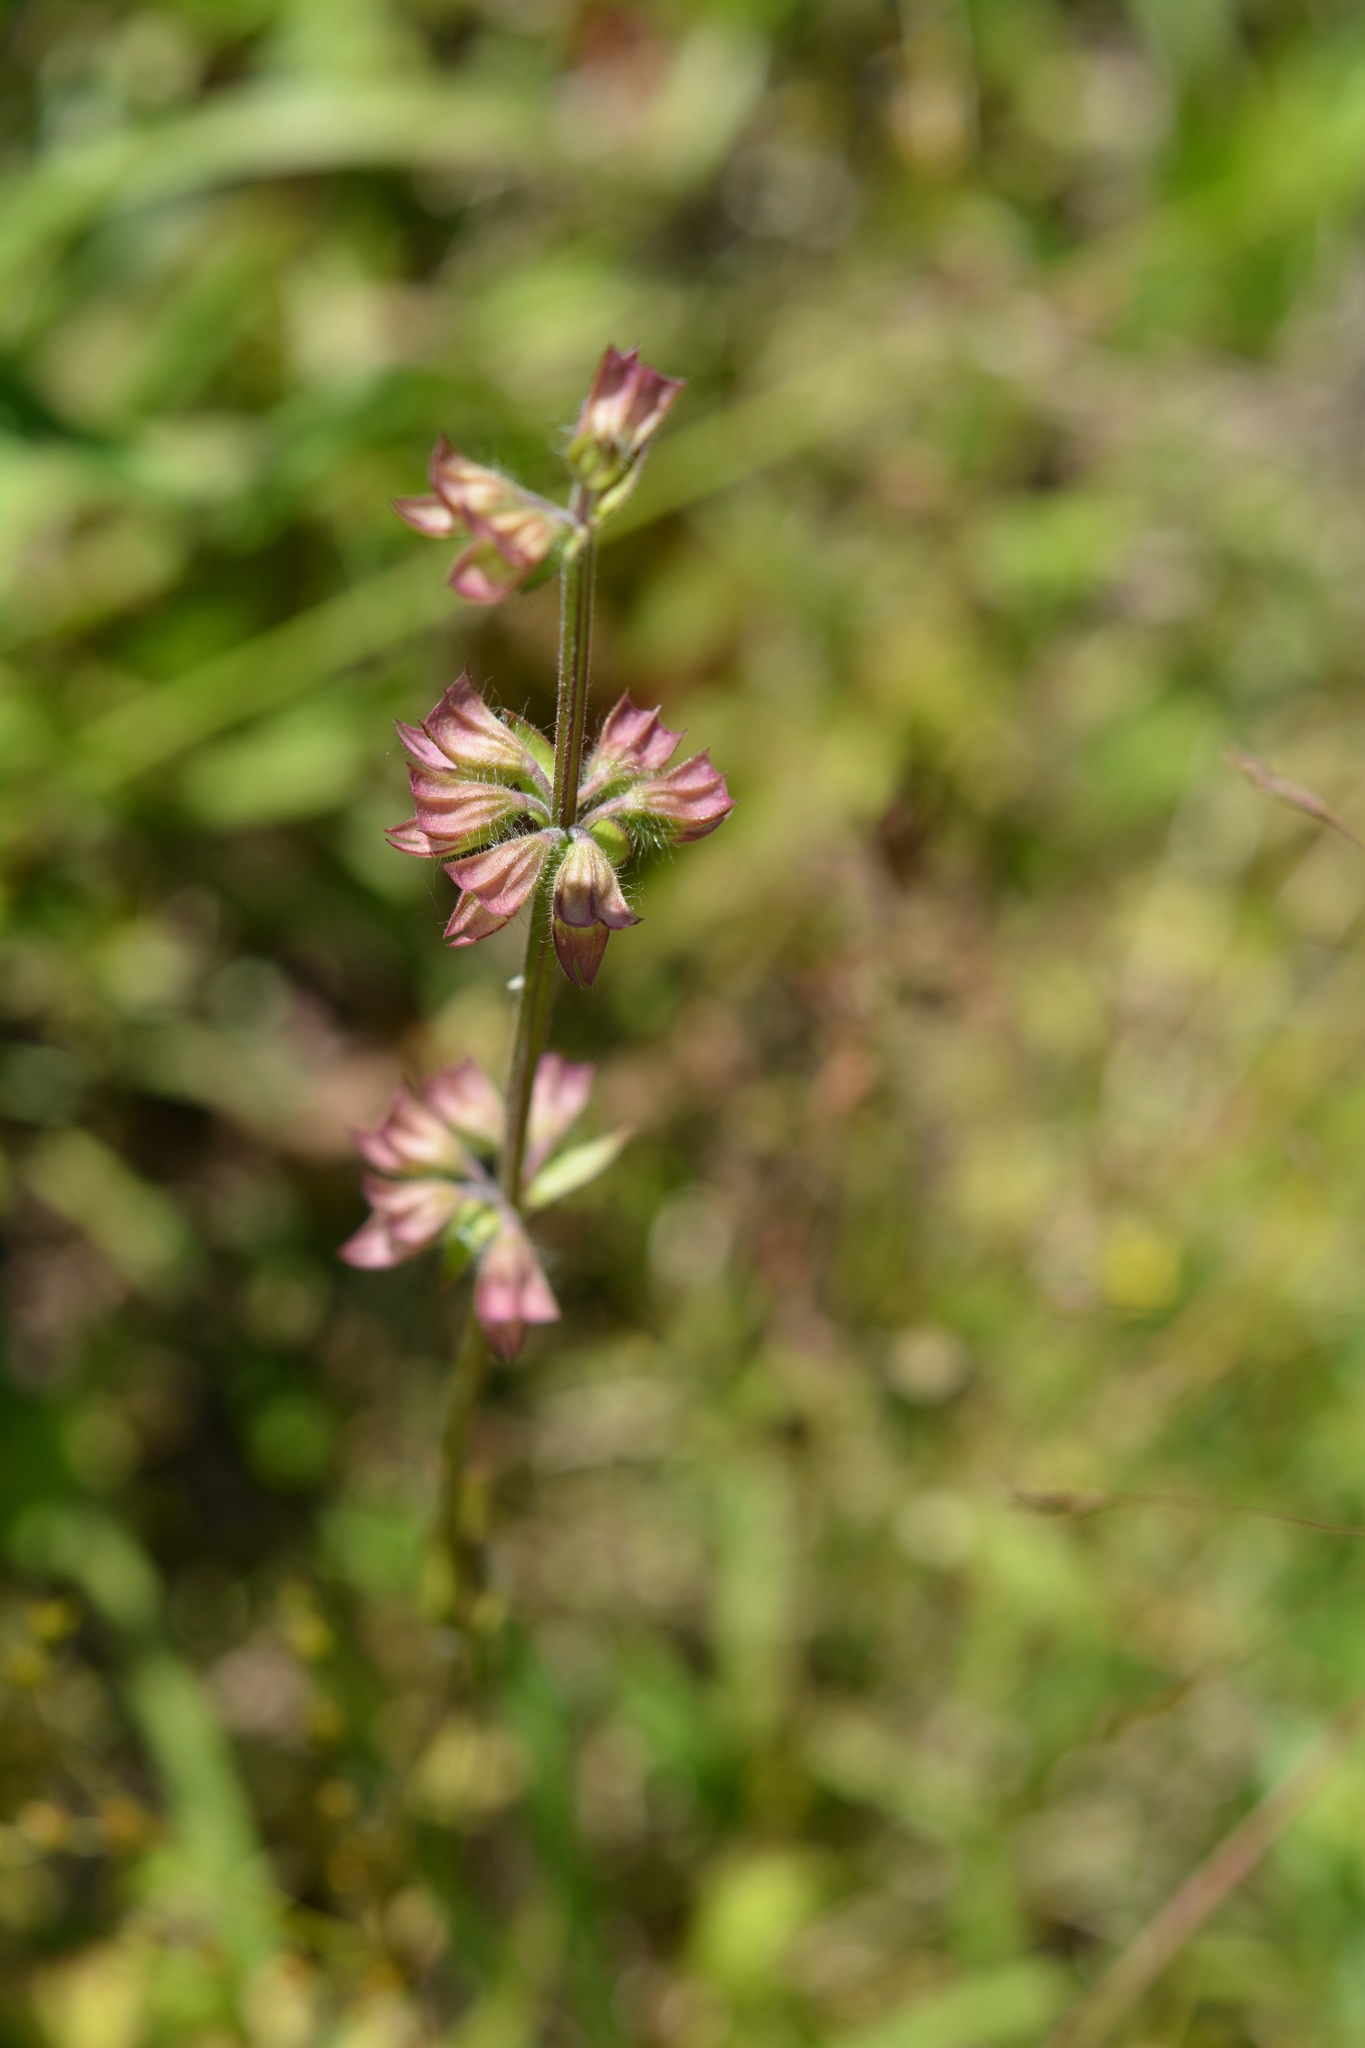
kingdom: Plantae
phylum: Tracheophyta
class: Magnoliopsida
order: Lamiales
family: Lamiaceae
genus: Salvia
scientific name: Salvia lyrata
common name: Cancerweed
